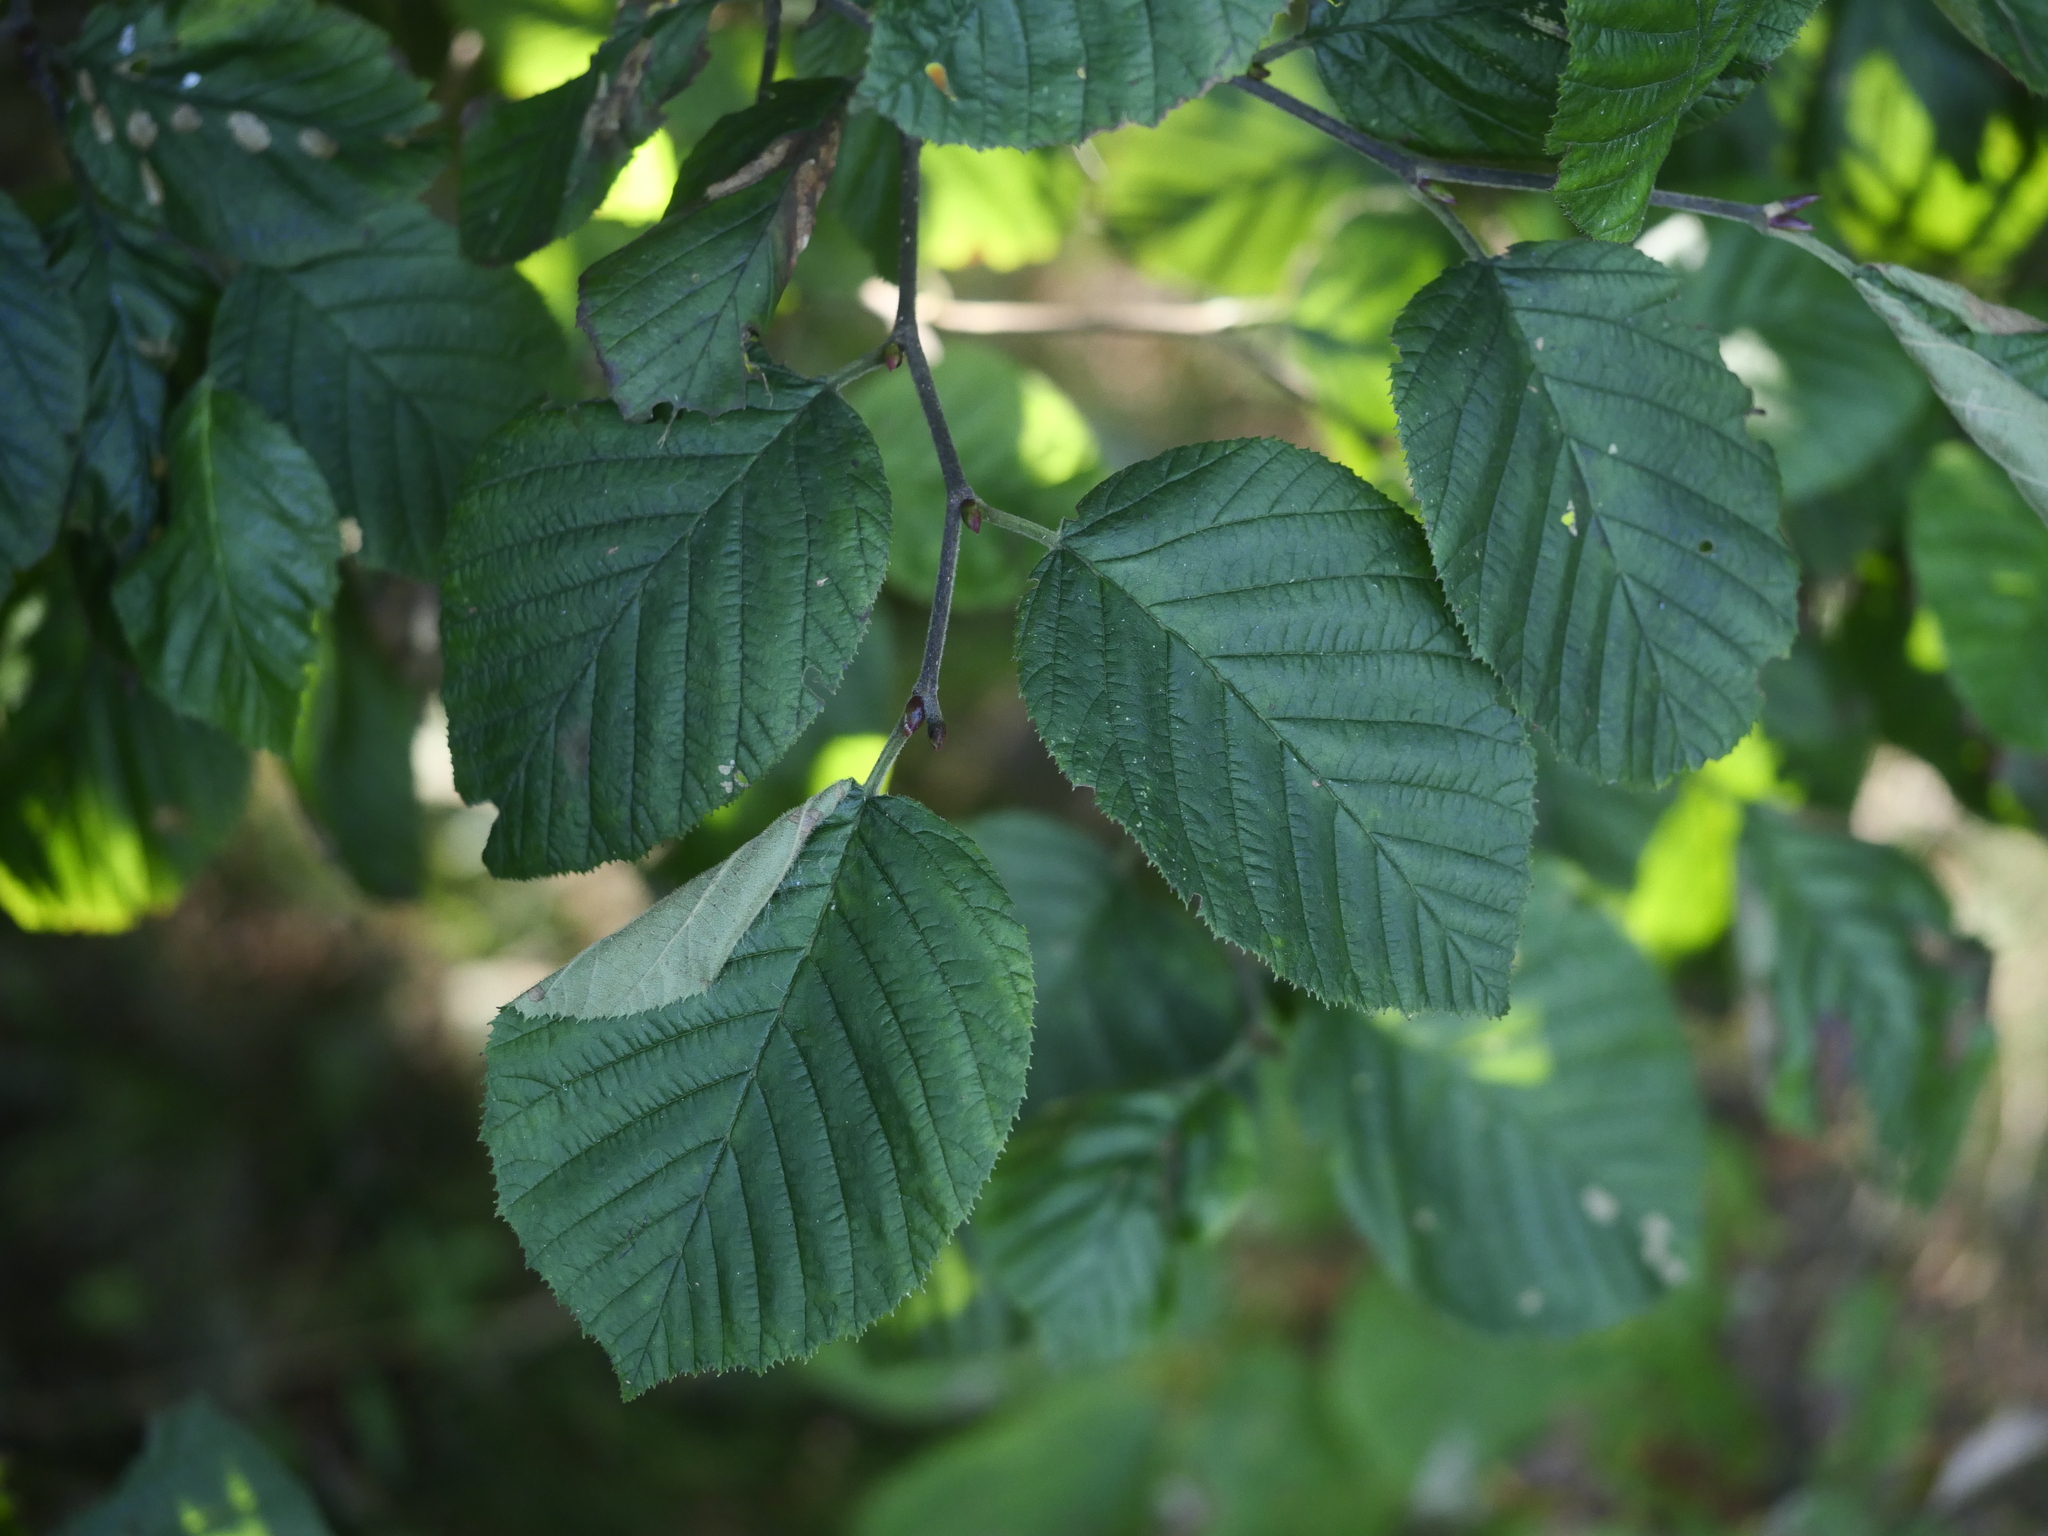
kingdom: Plantae
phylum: Tracheophyta
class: Magnoliopsida
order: Fagales
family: Betulaceae
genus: Alnus
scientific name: Alnus alnobetula
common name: Green alder
